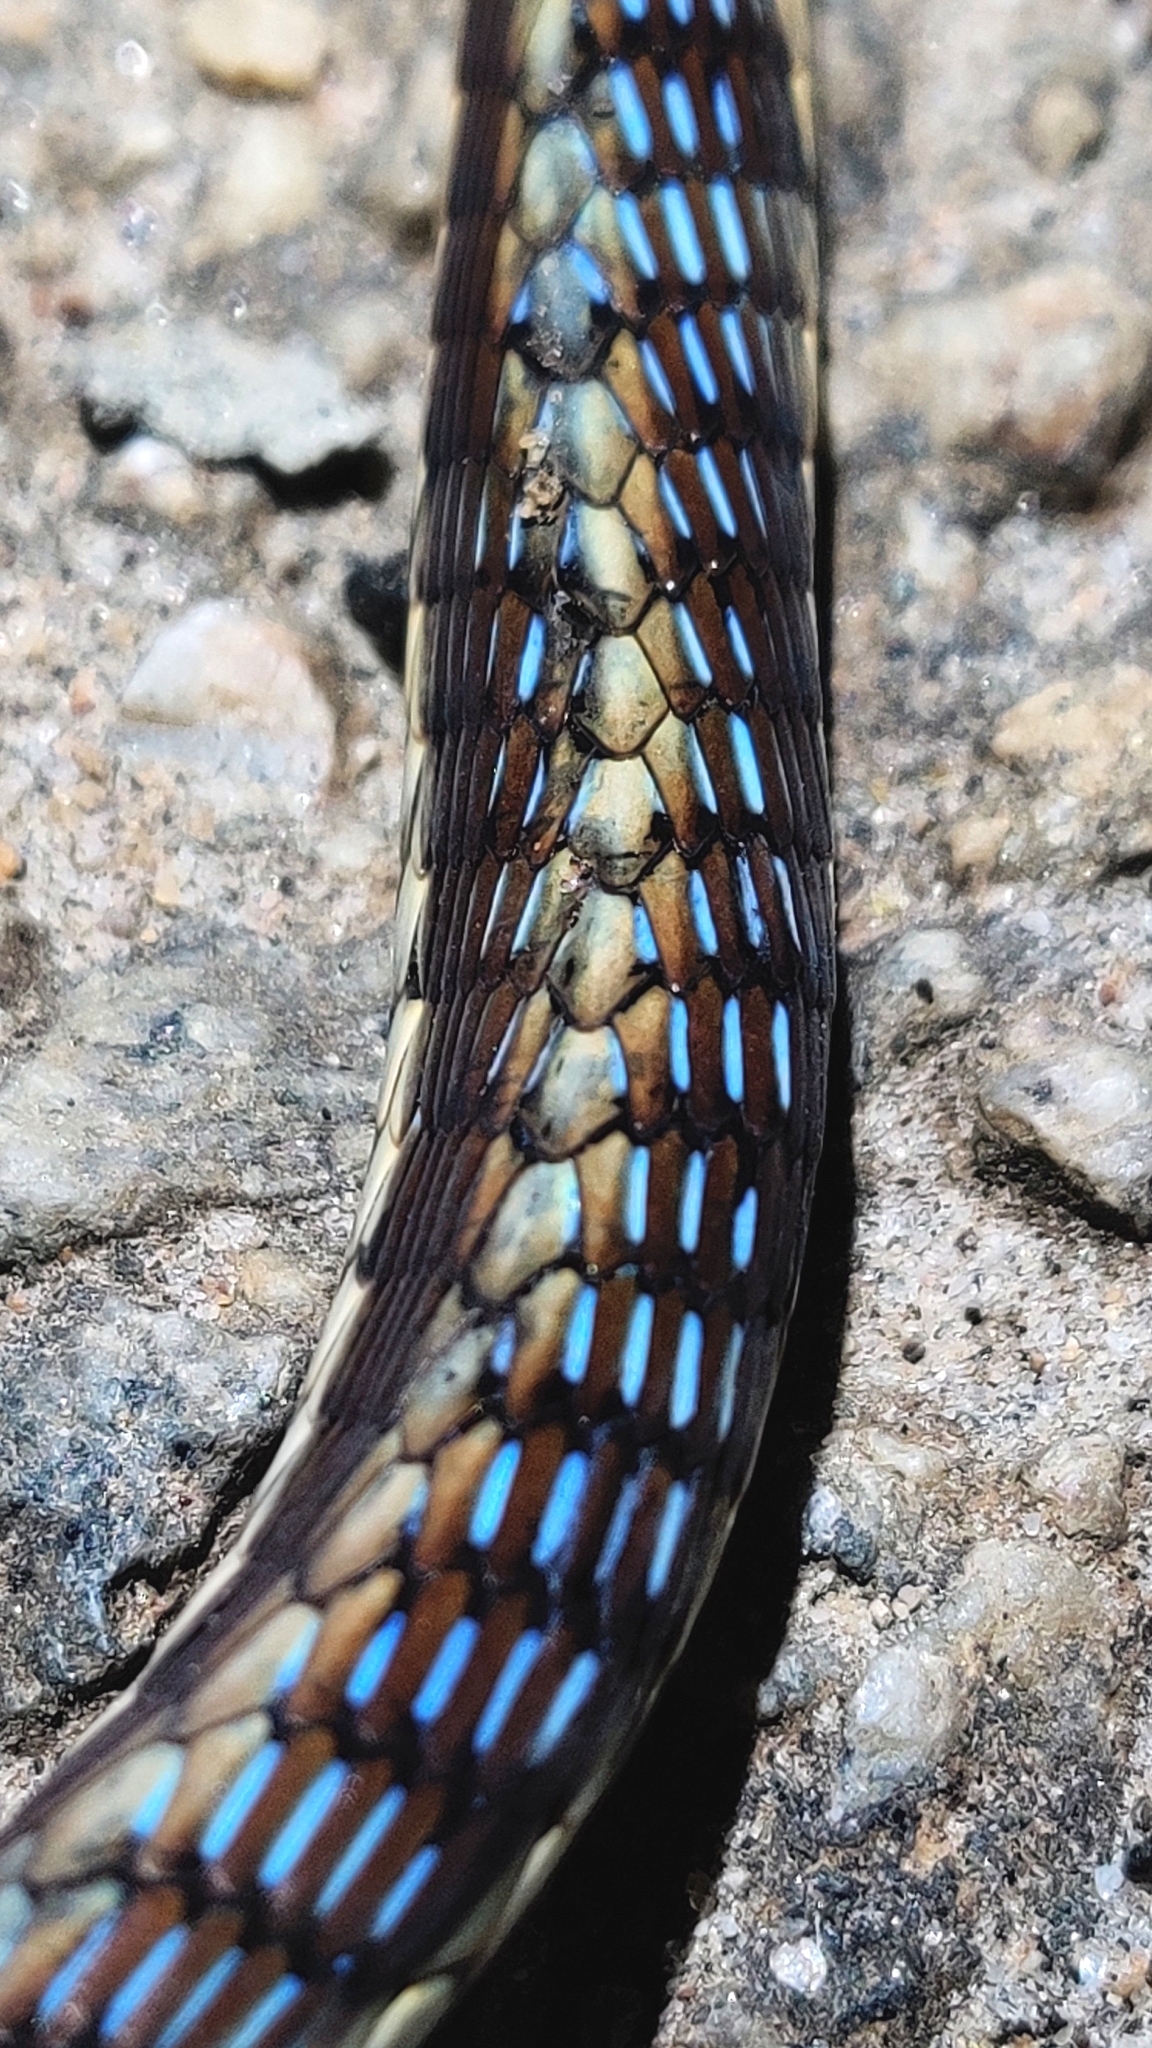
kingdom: Animalia
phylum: Chordata
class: Squamata
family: Colubridae
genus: Dendrelaphis
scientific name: Dendrelaphis tristis
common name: Daudin's bronzeback
